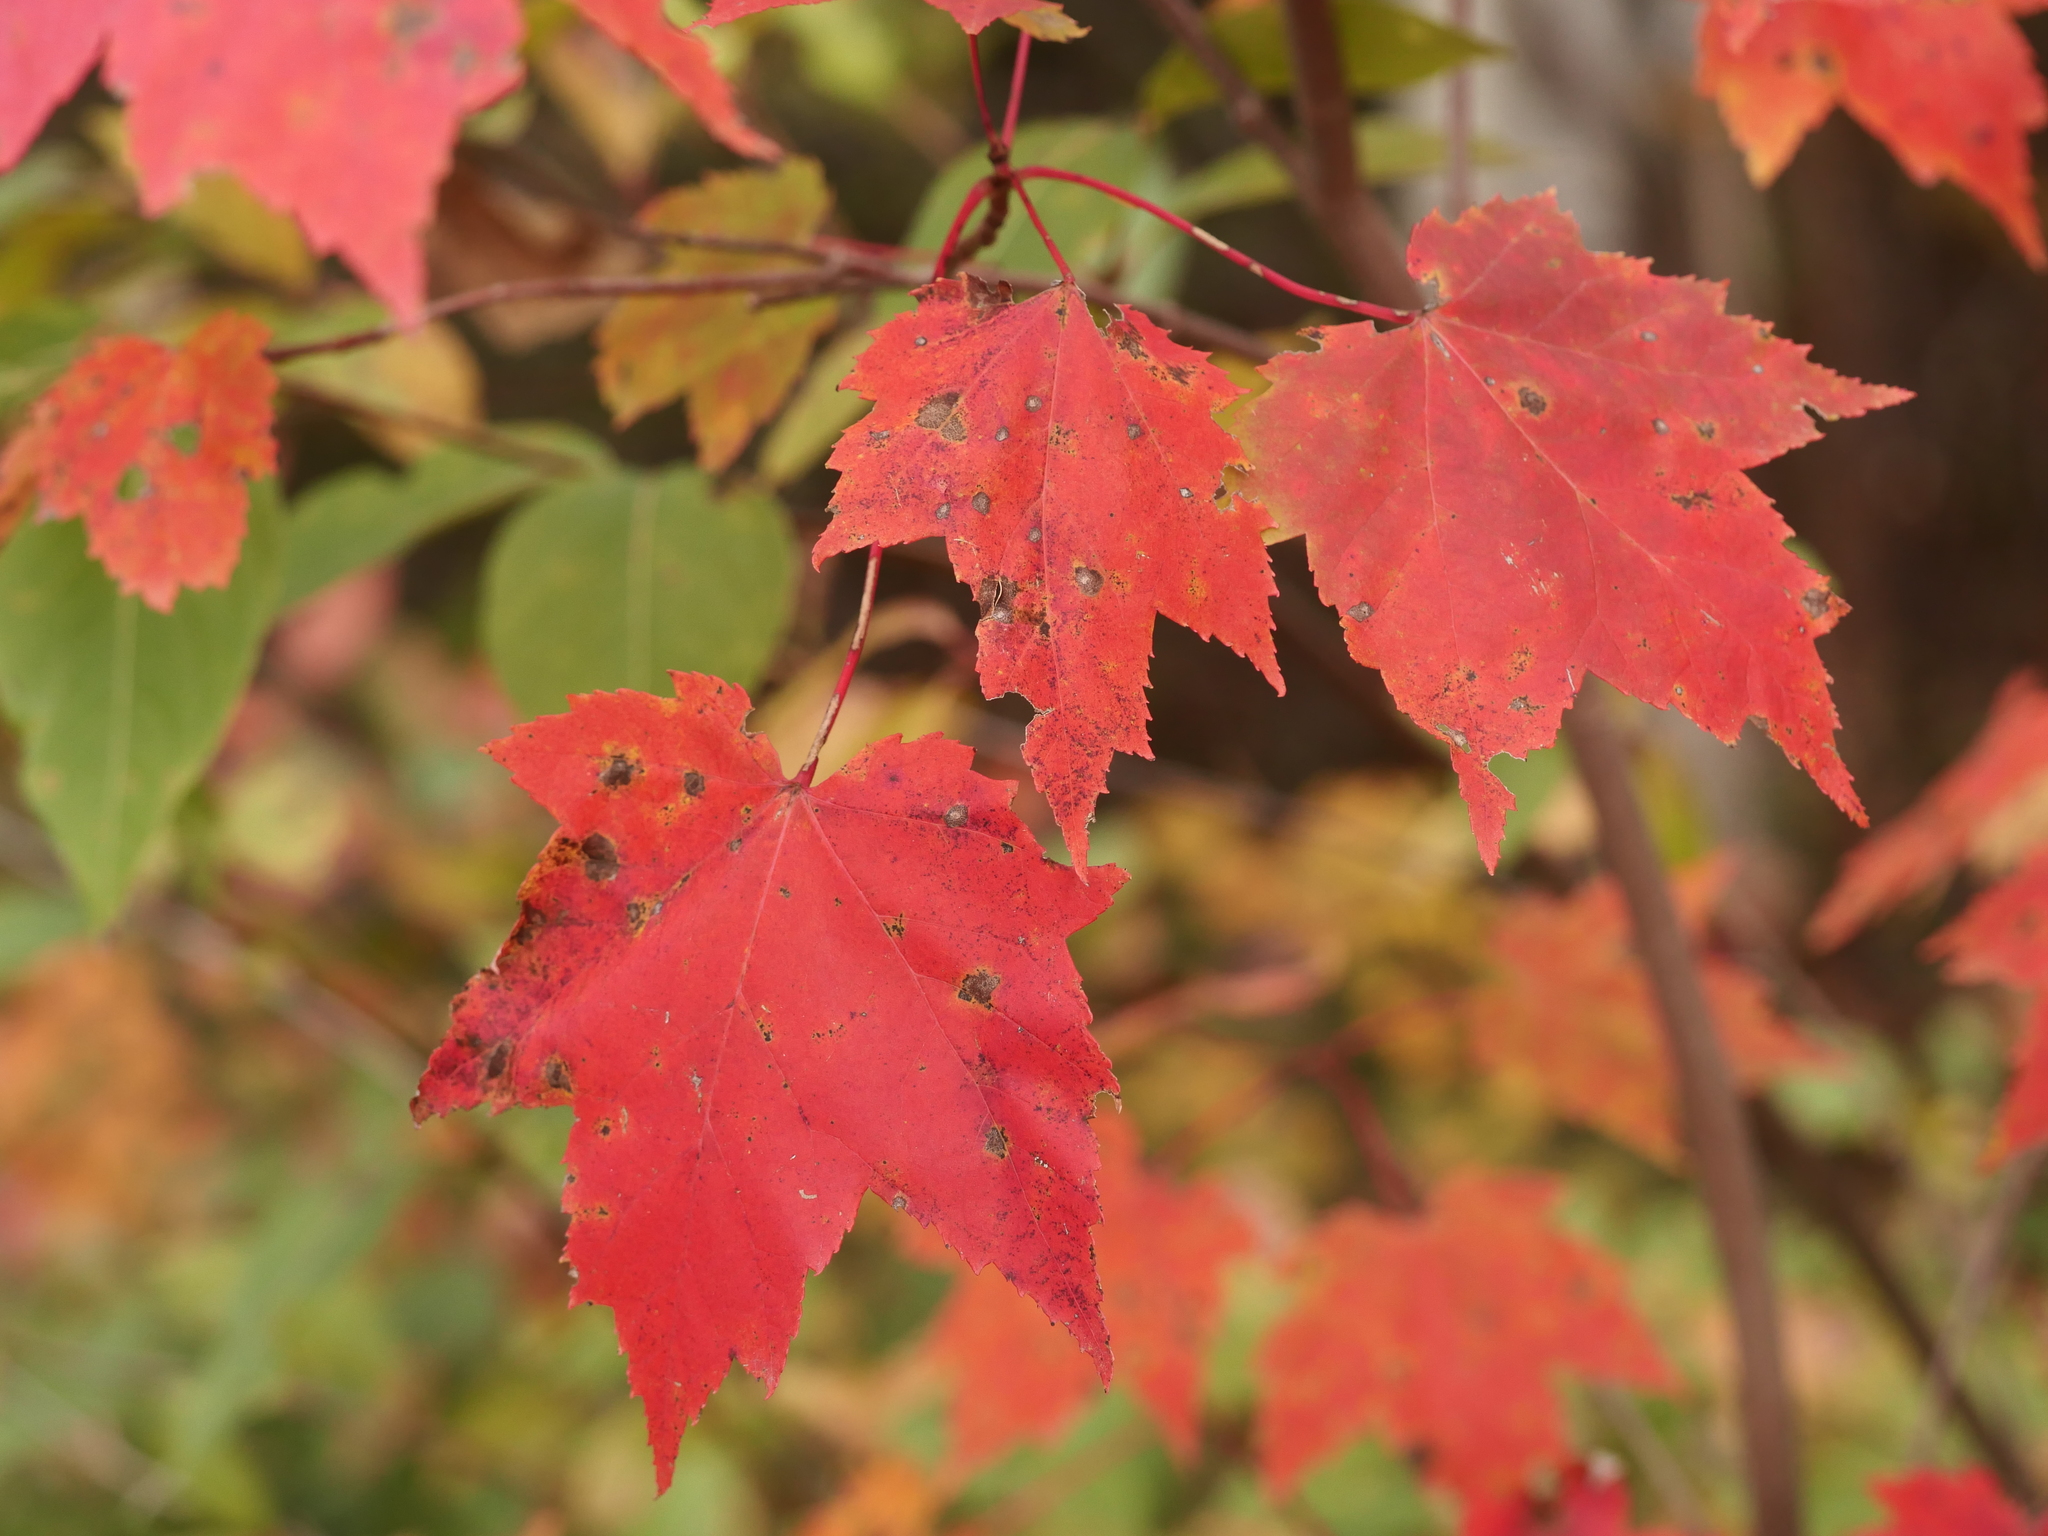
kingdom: Plantae
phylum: Tracheophyta
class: Magnoliopsida
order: Sapindales
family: Sapindaceae
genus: Acer
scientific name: Acer rubrum
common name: Red maple
